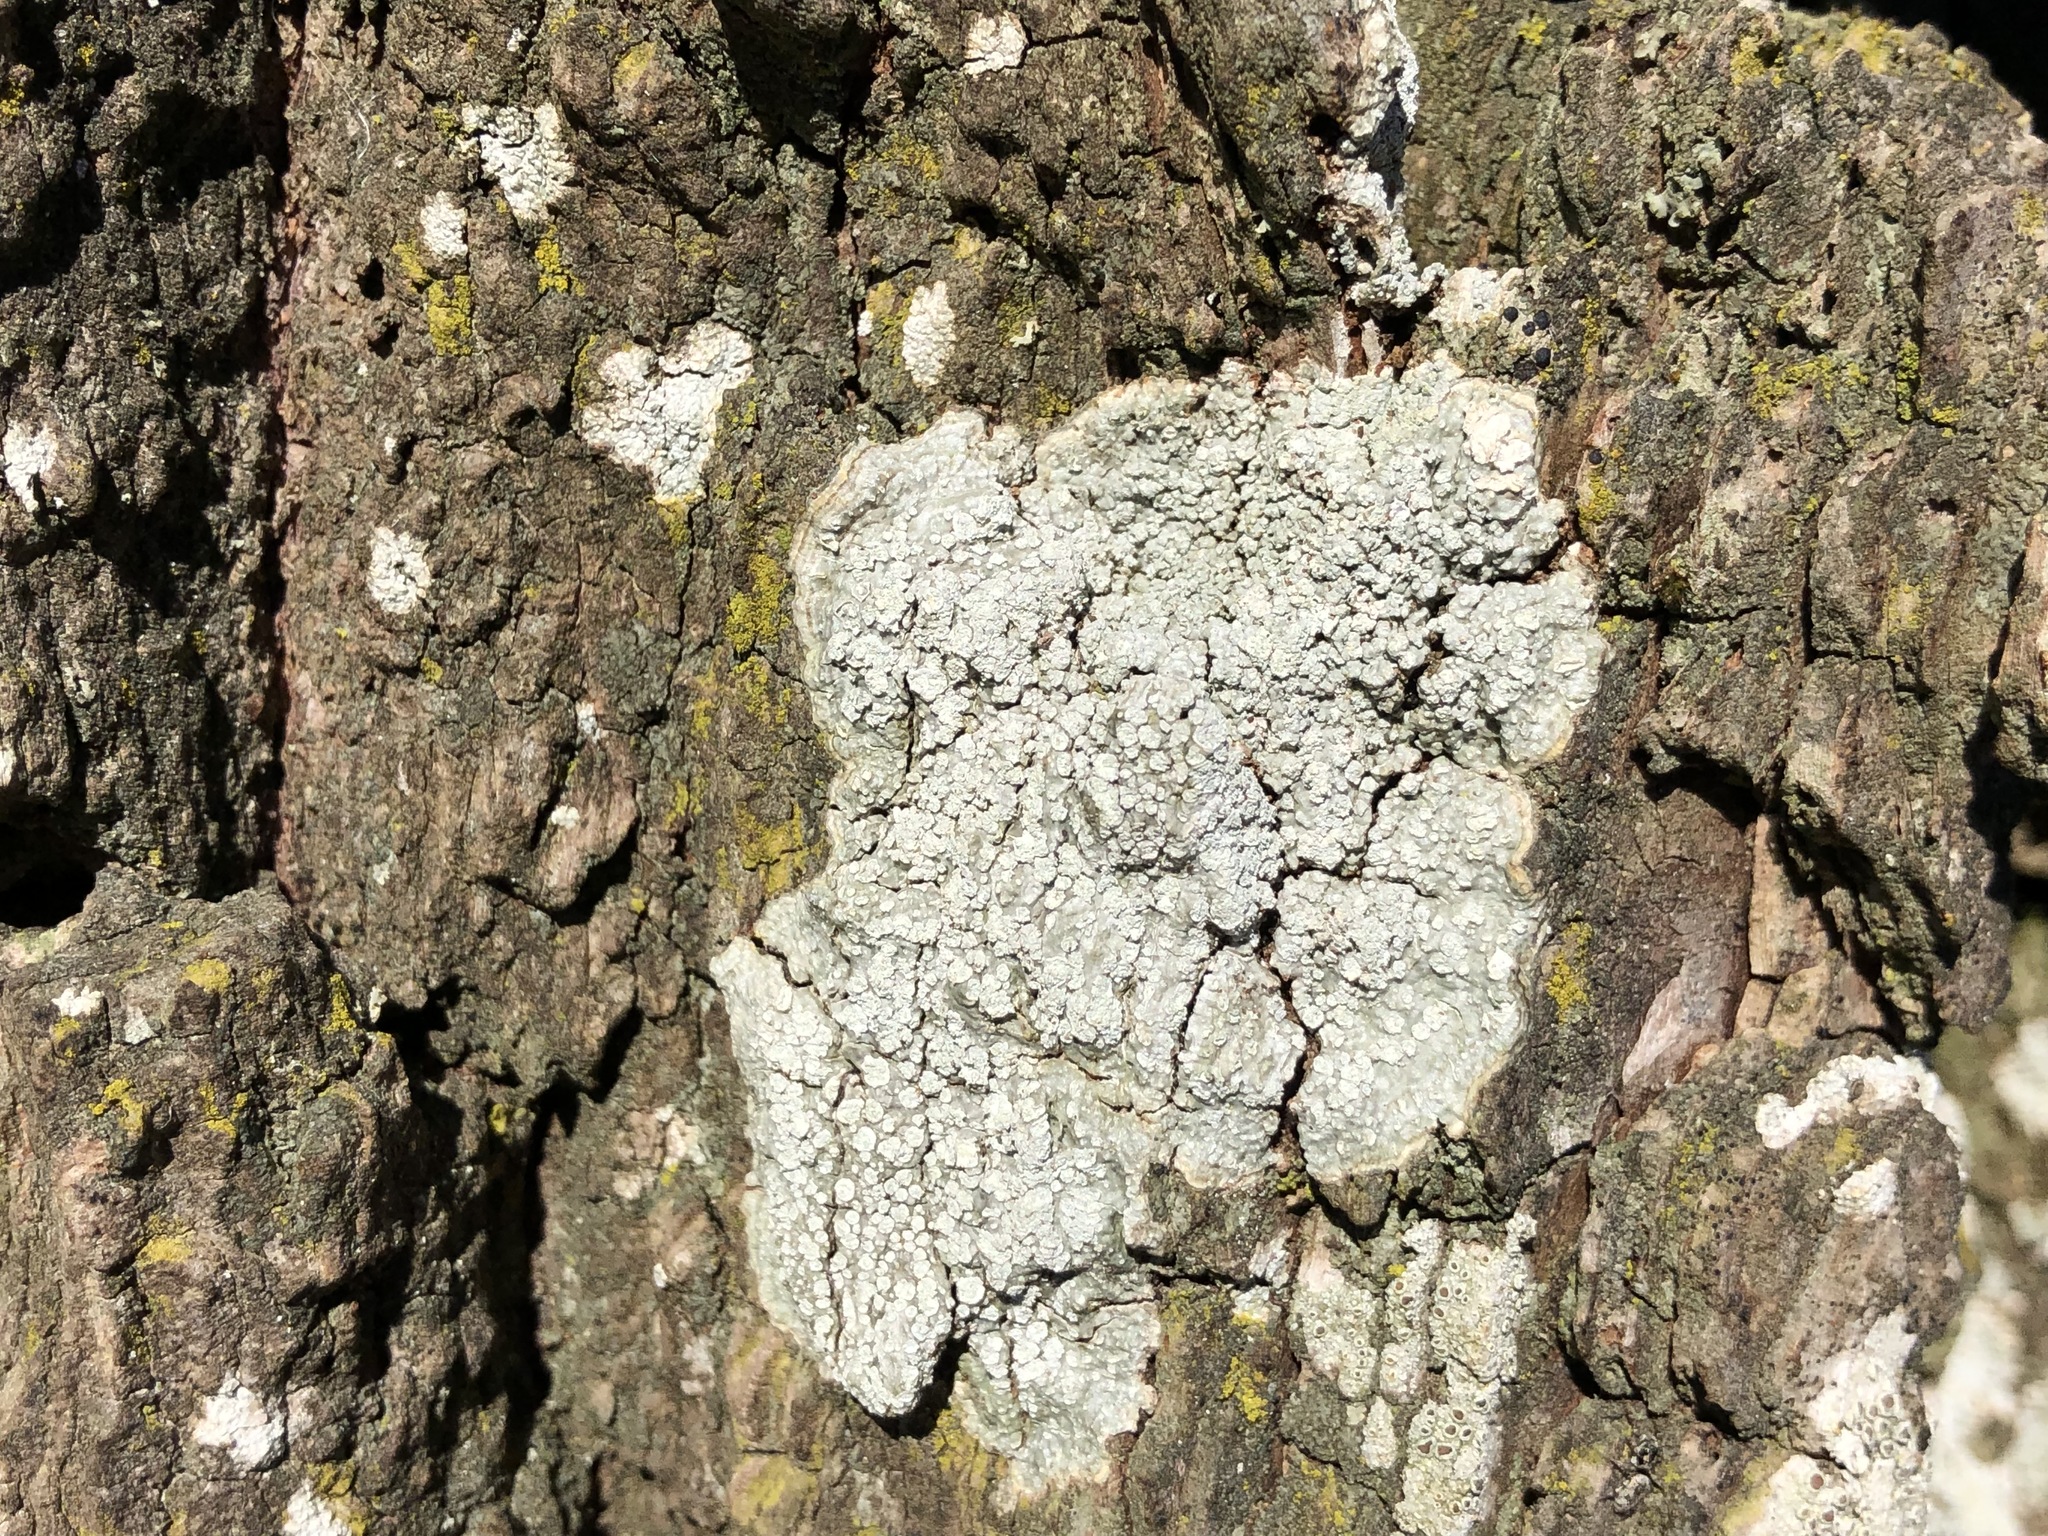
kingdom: Fungi
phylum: Ascomycota
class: Lecanoromycetes
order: Pertusariales
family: Pertusariaceae
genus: Lepra
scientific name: Lepra albescens
